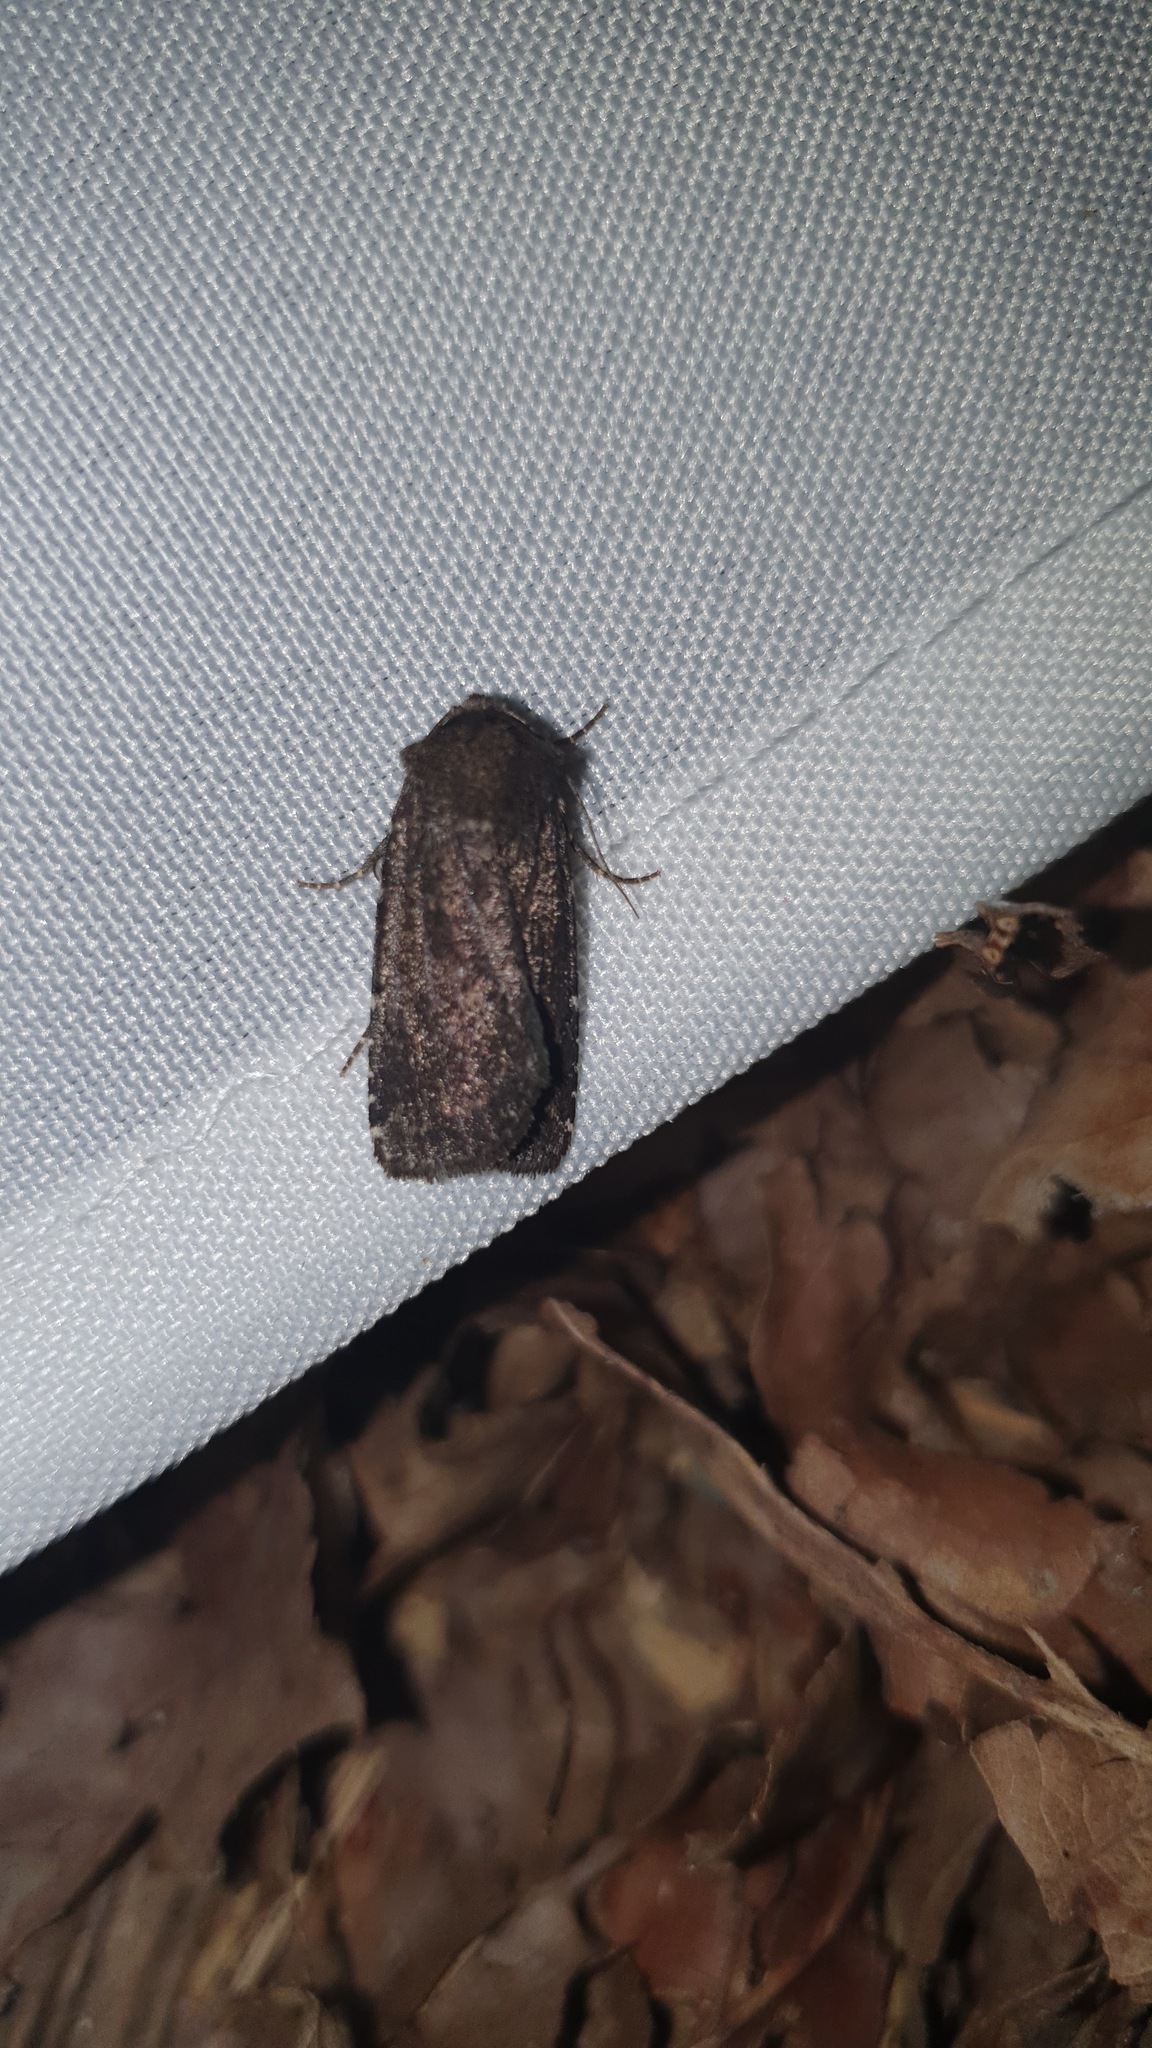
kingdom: Animalia
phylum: Arthropoda
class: Insecta
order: Lepidoptera
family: Noctuidae
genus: Lycophotia
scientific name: Lycophotia erythrina
